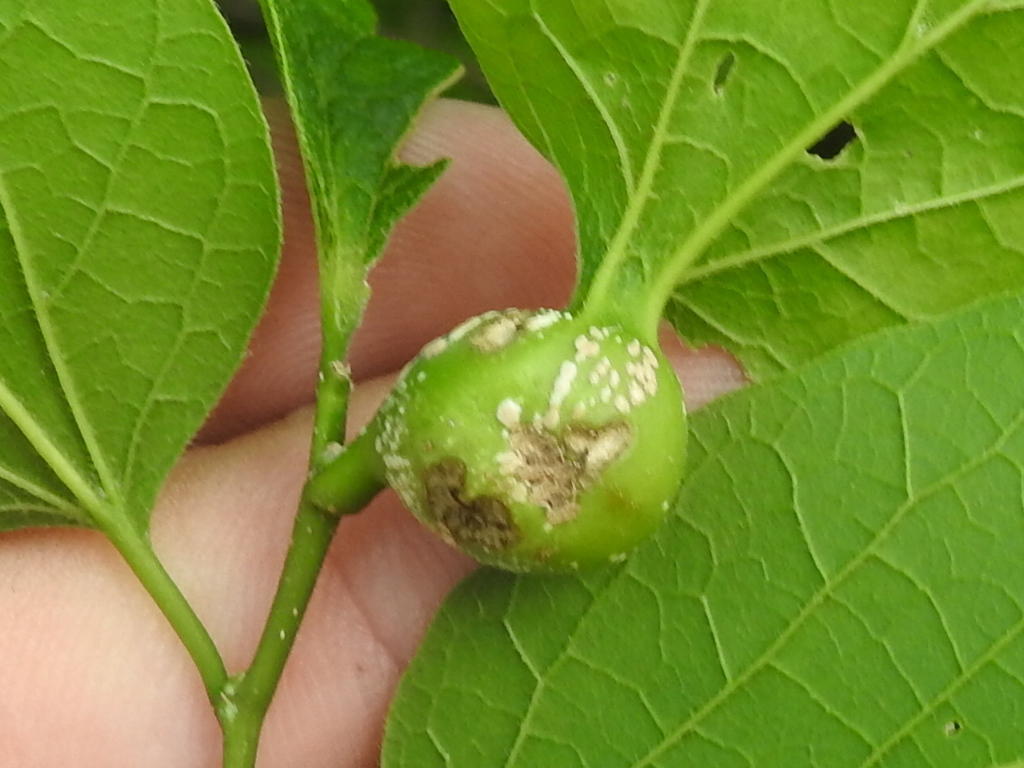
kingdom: Animalia
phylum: Arthropoda
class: Insecta
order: Hemiptera
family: Aphalaridae
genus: Pachypsylla
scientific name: Pachypsylla venusta
